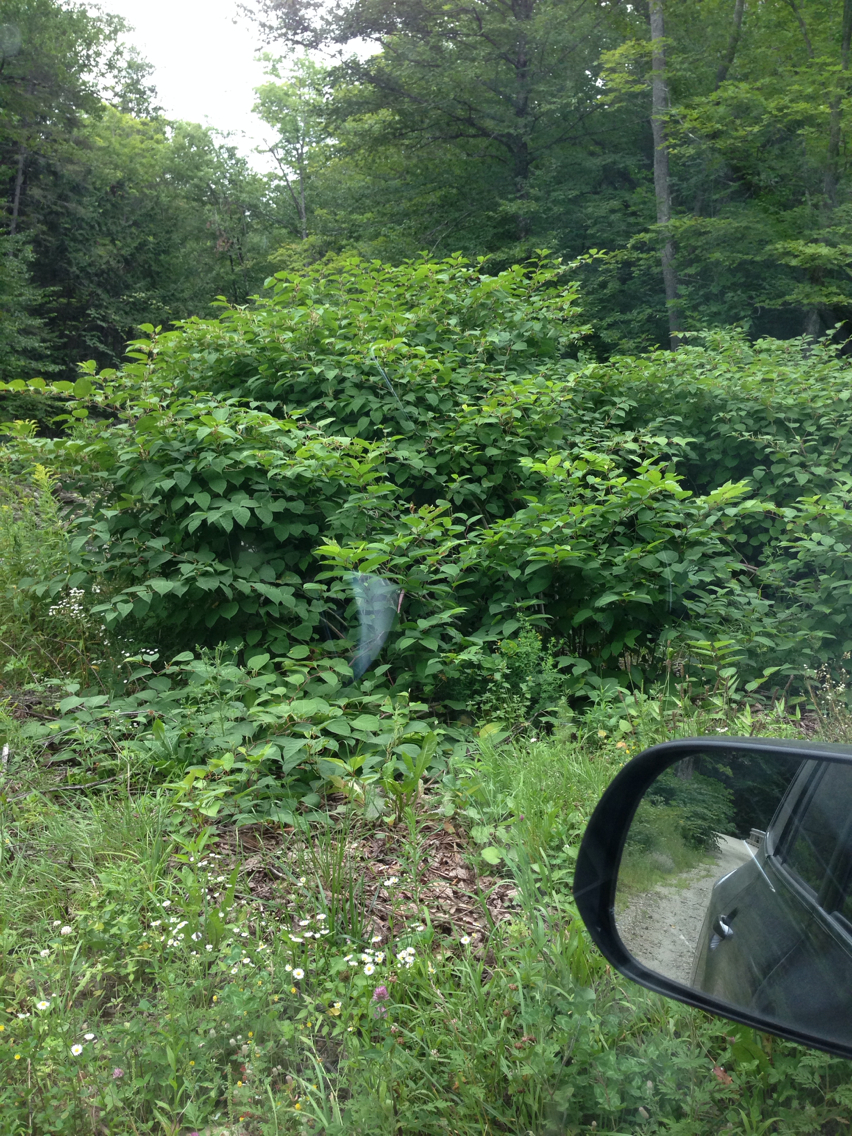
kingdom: Plantae
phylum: Tracheophyta
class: Magnoliopsida
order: Caryophyllales
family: Polygonaceae
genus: Reynoutria
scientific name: Reynoutria japonica
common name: Japanese knotweed
